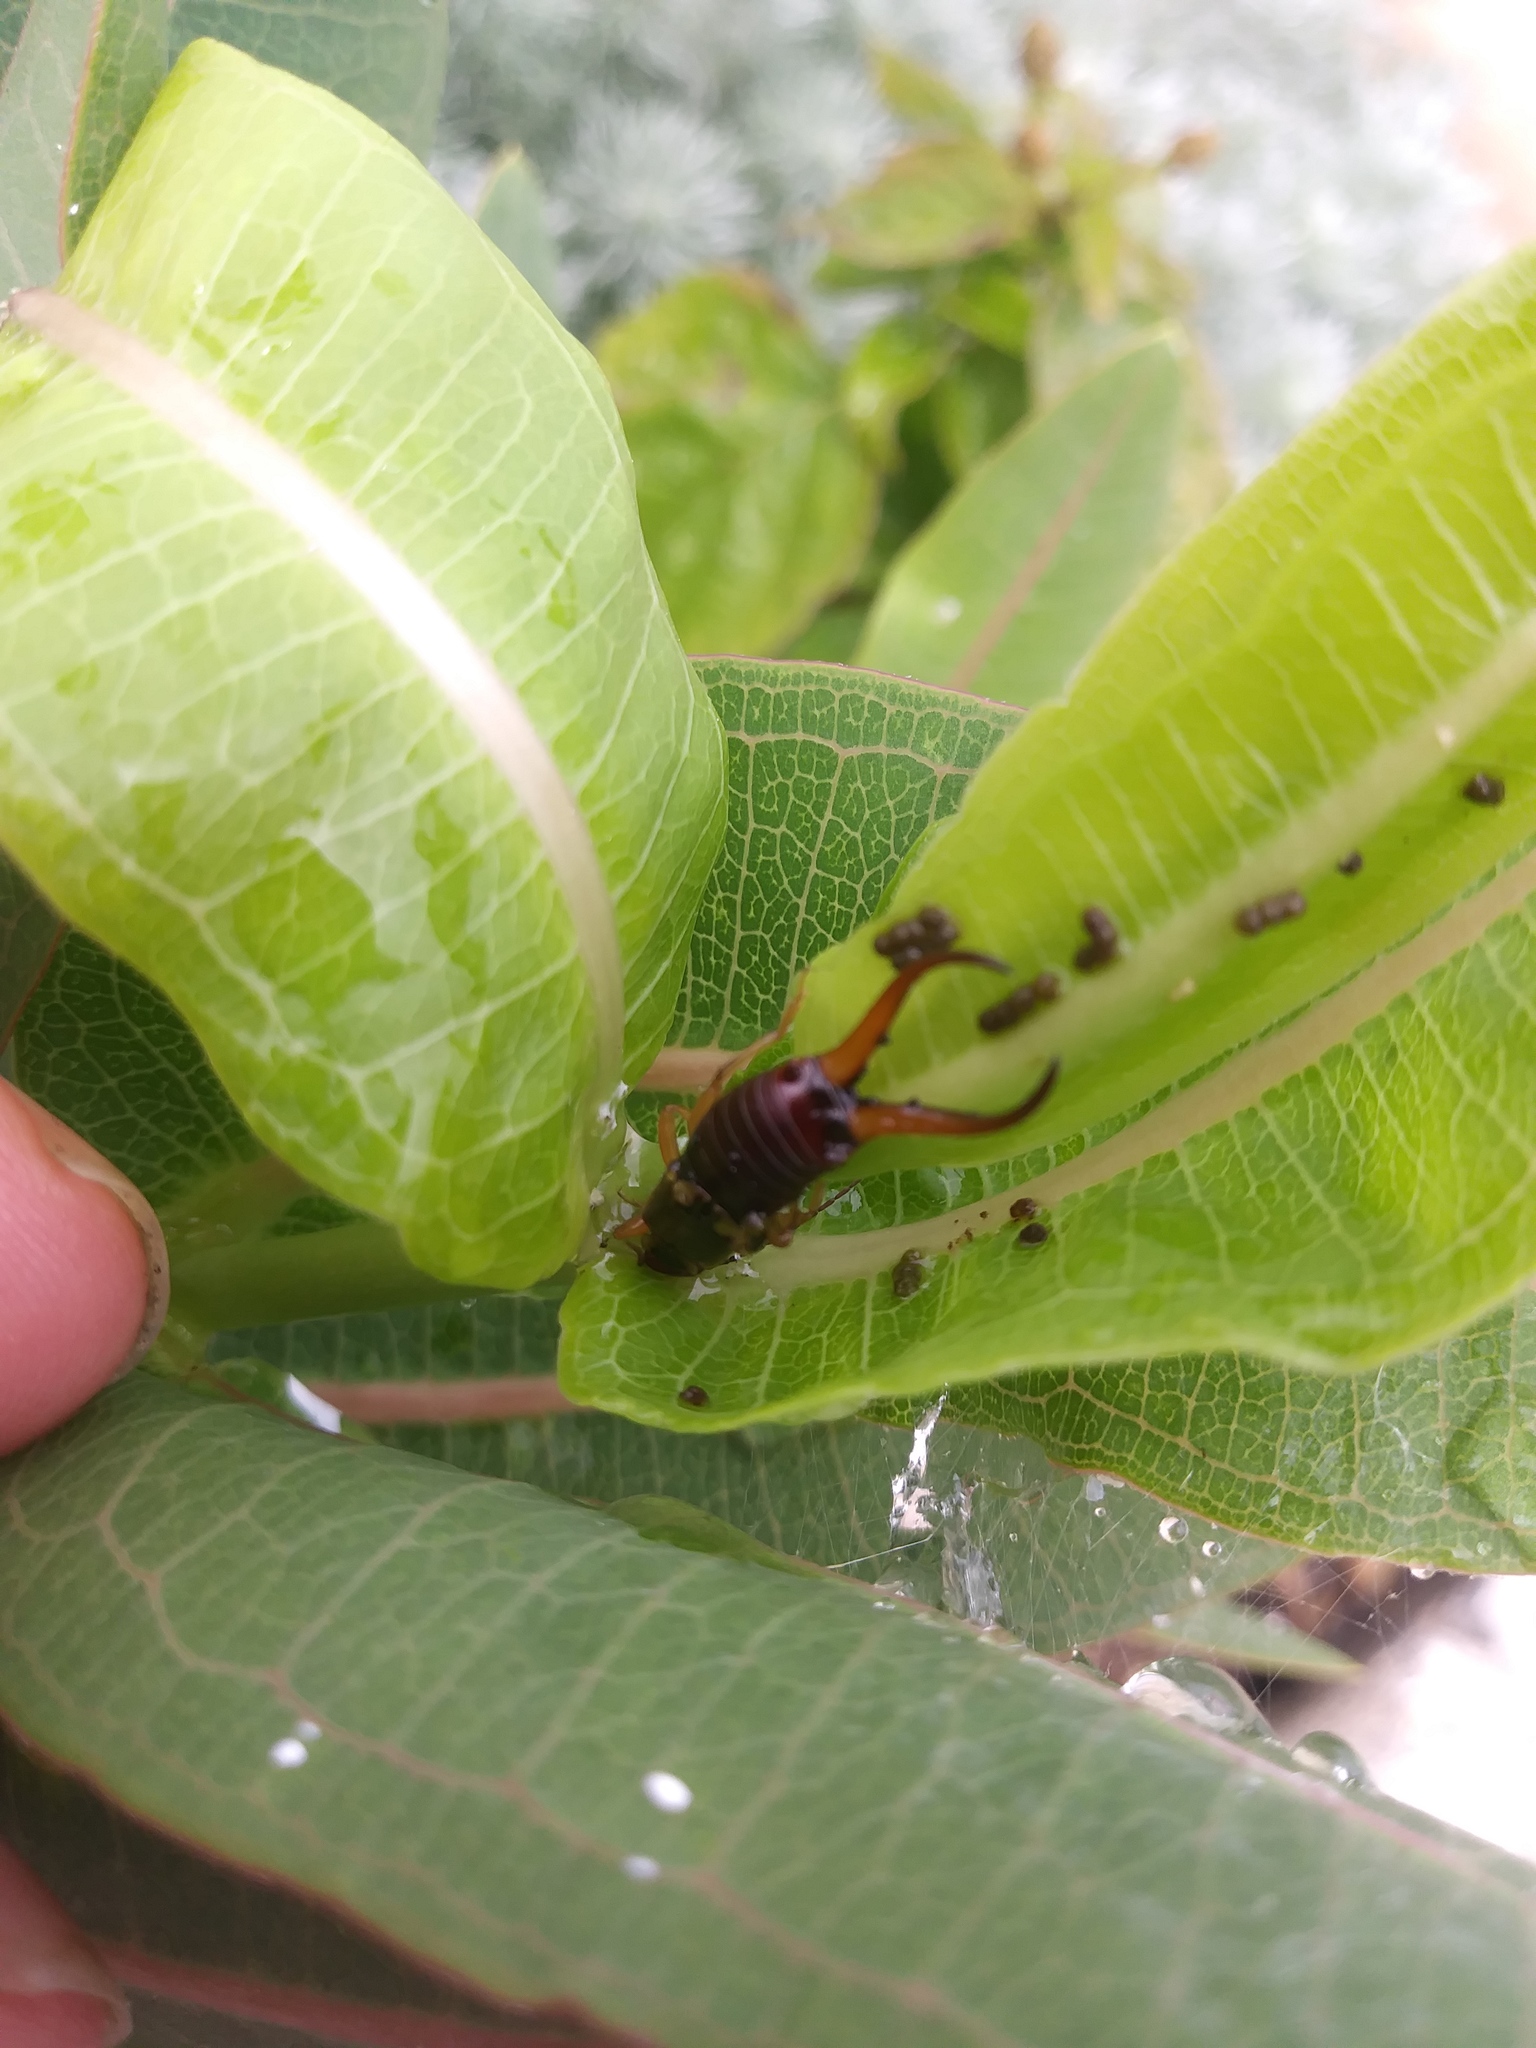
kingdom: Animalia
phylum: Arthropoda
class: Insecta
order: Dermaptera
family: Forficulidae
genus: Forficula
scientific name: Forficula
